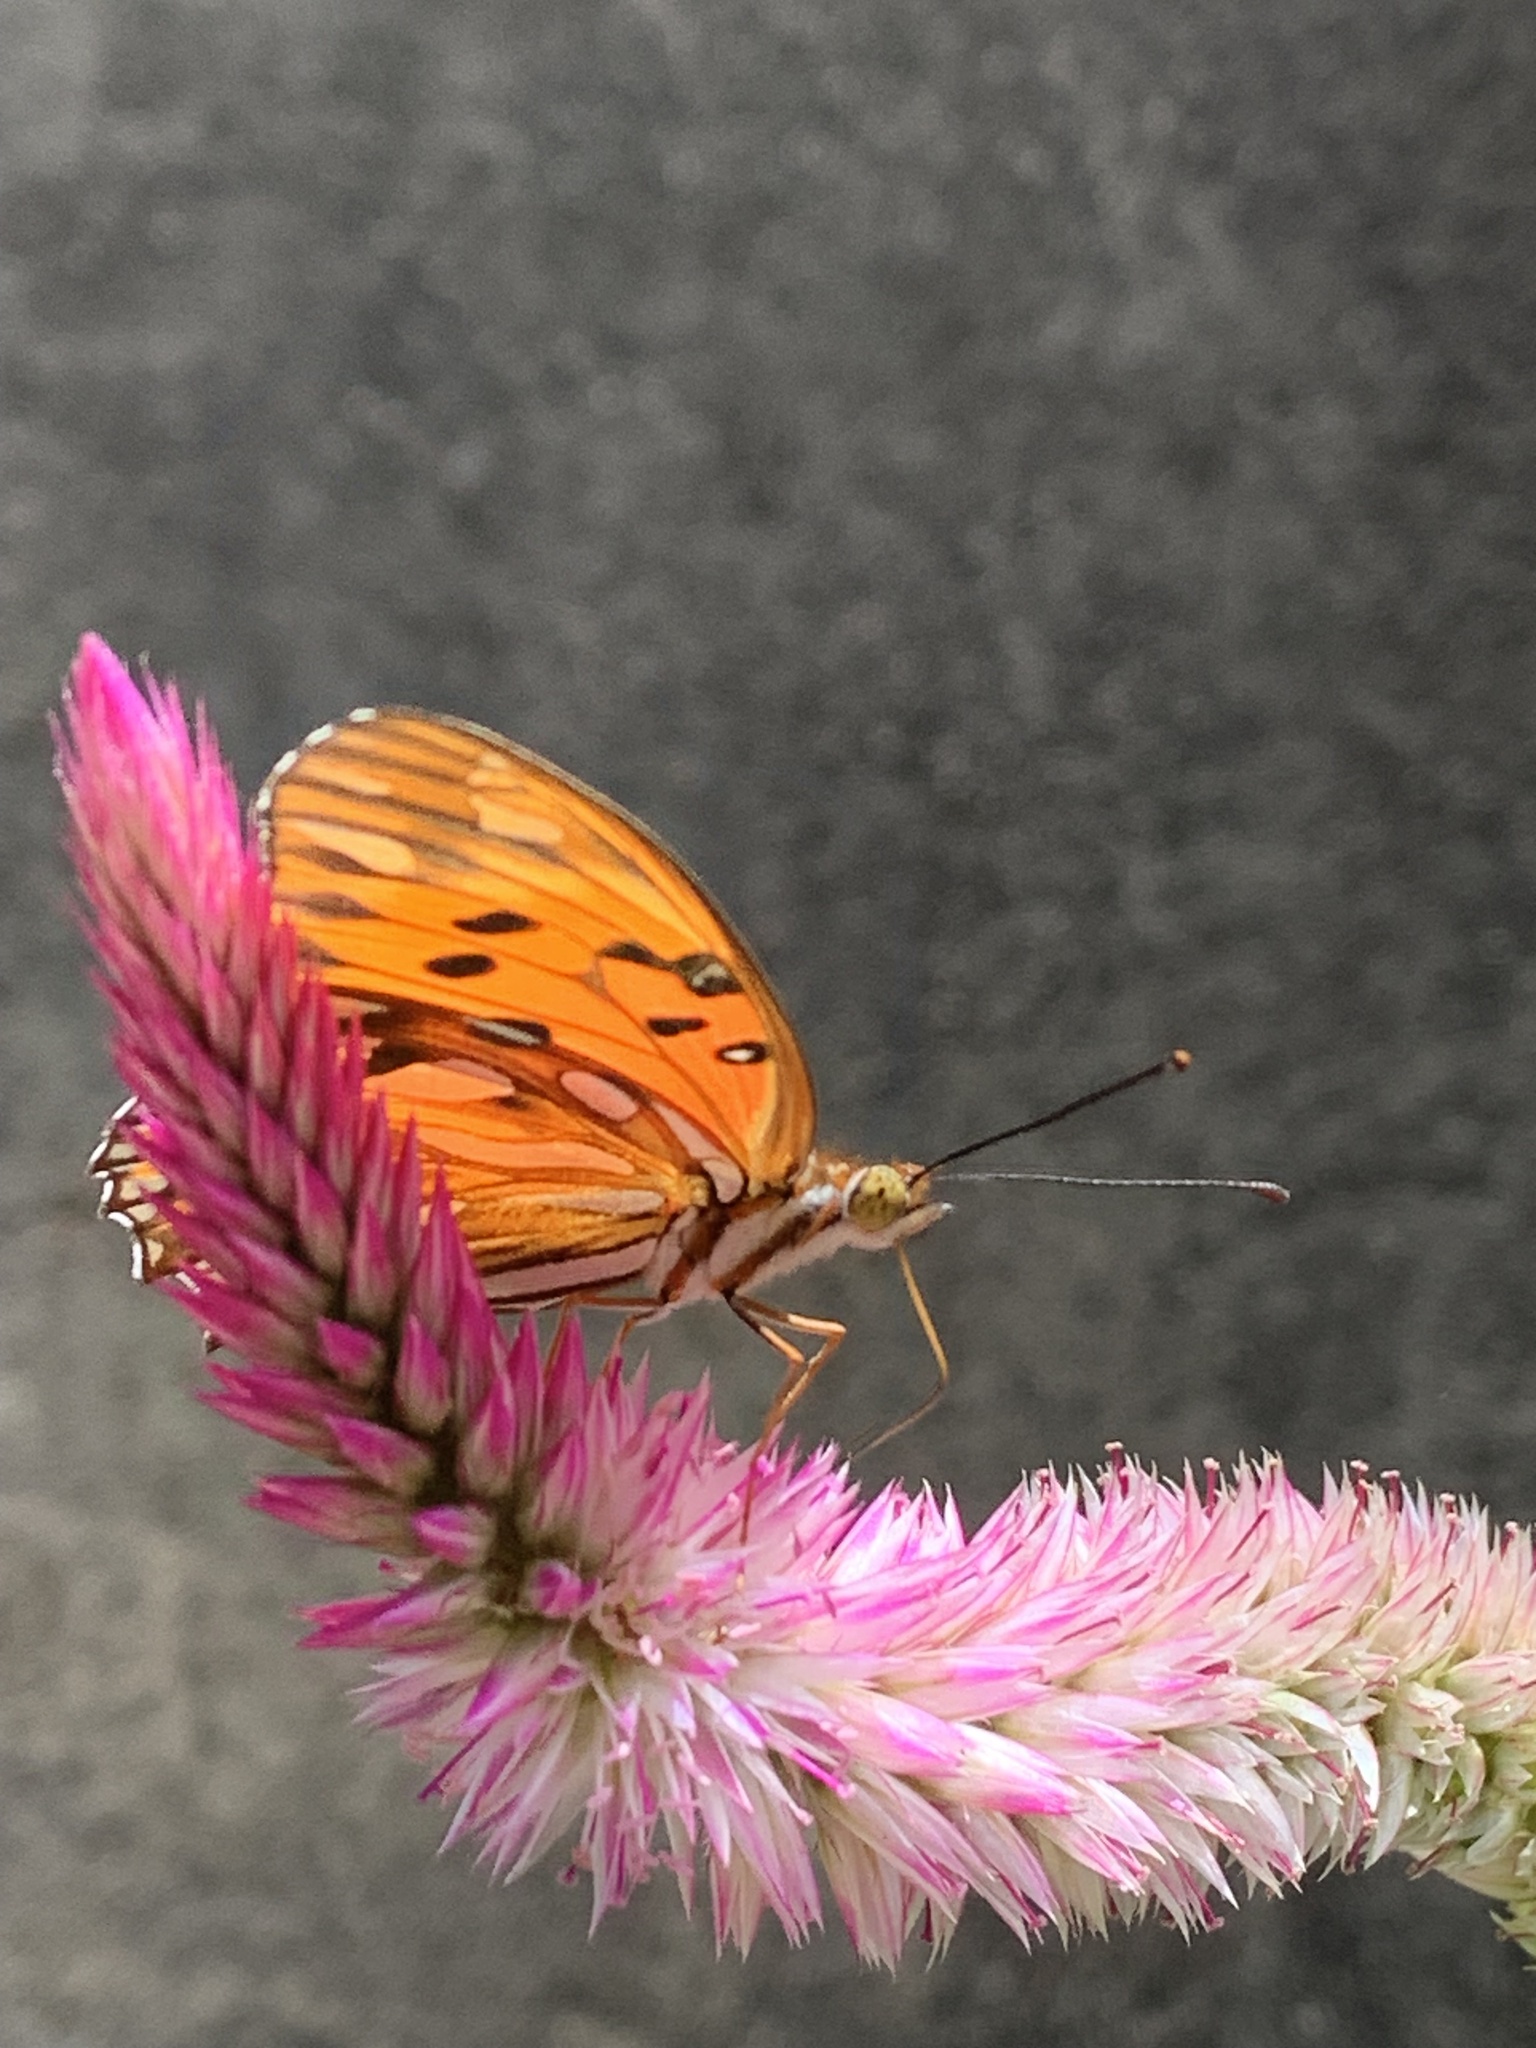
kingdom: Animalia
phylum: Arthropoda
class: Insecta
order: Lepidoptera
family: Nymphalidae
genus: Dione
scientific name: Dione vanillae
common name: Gulf fritillary
